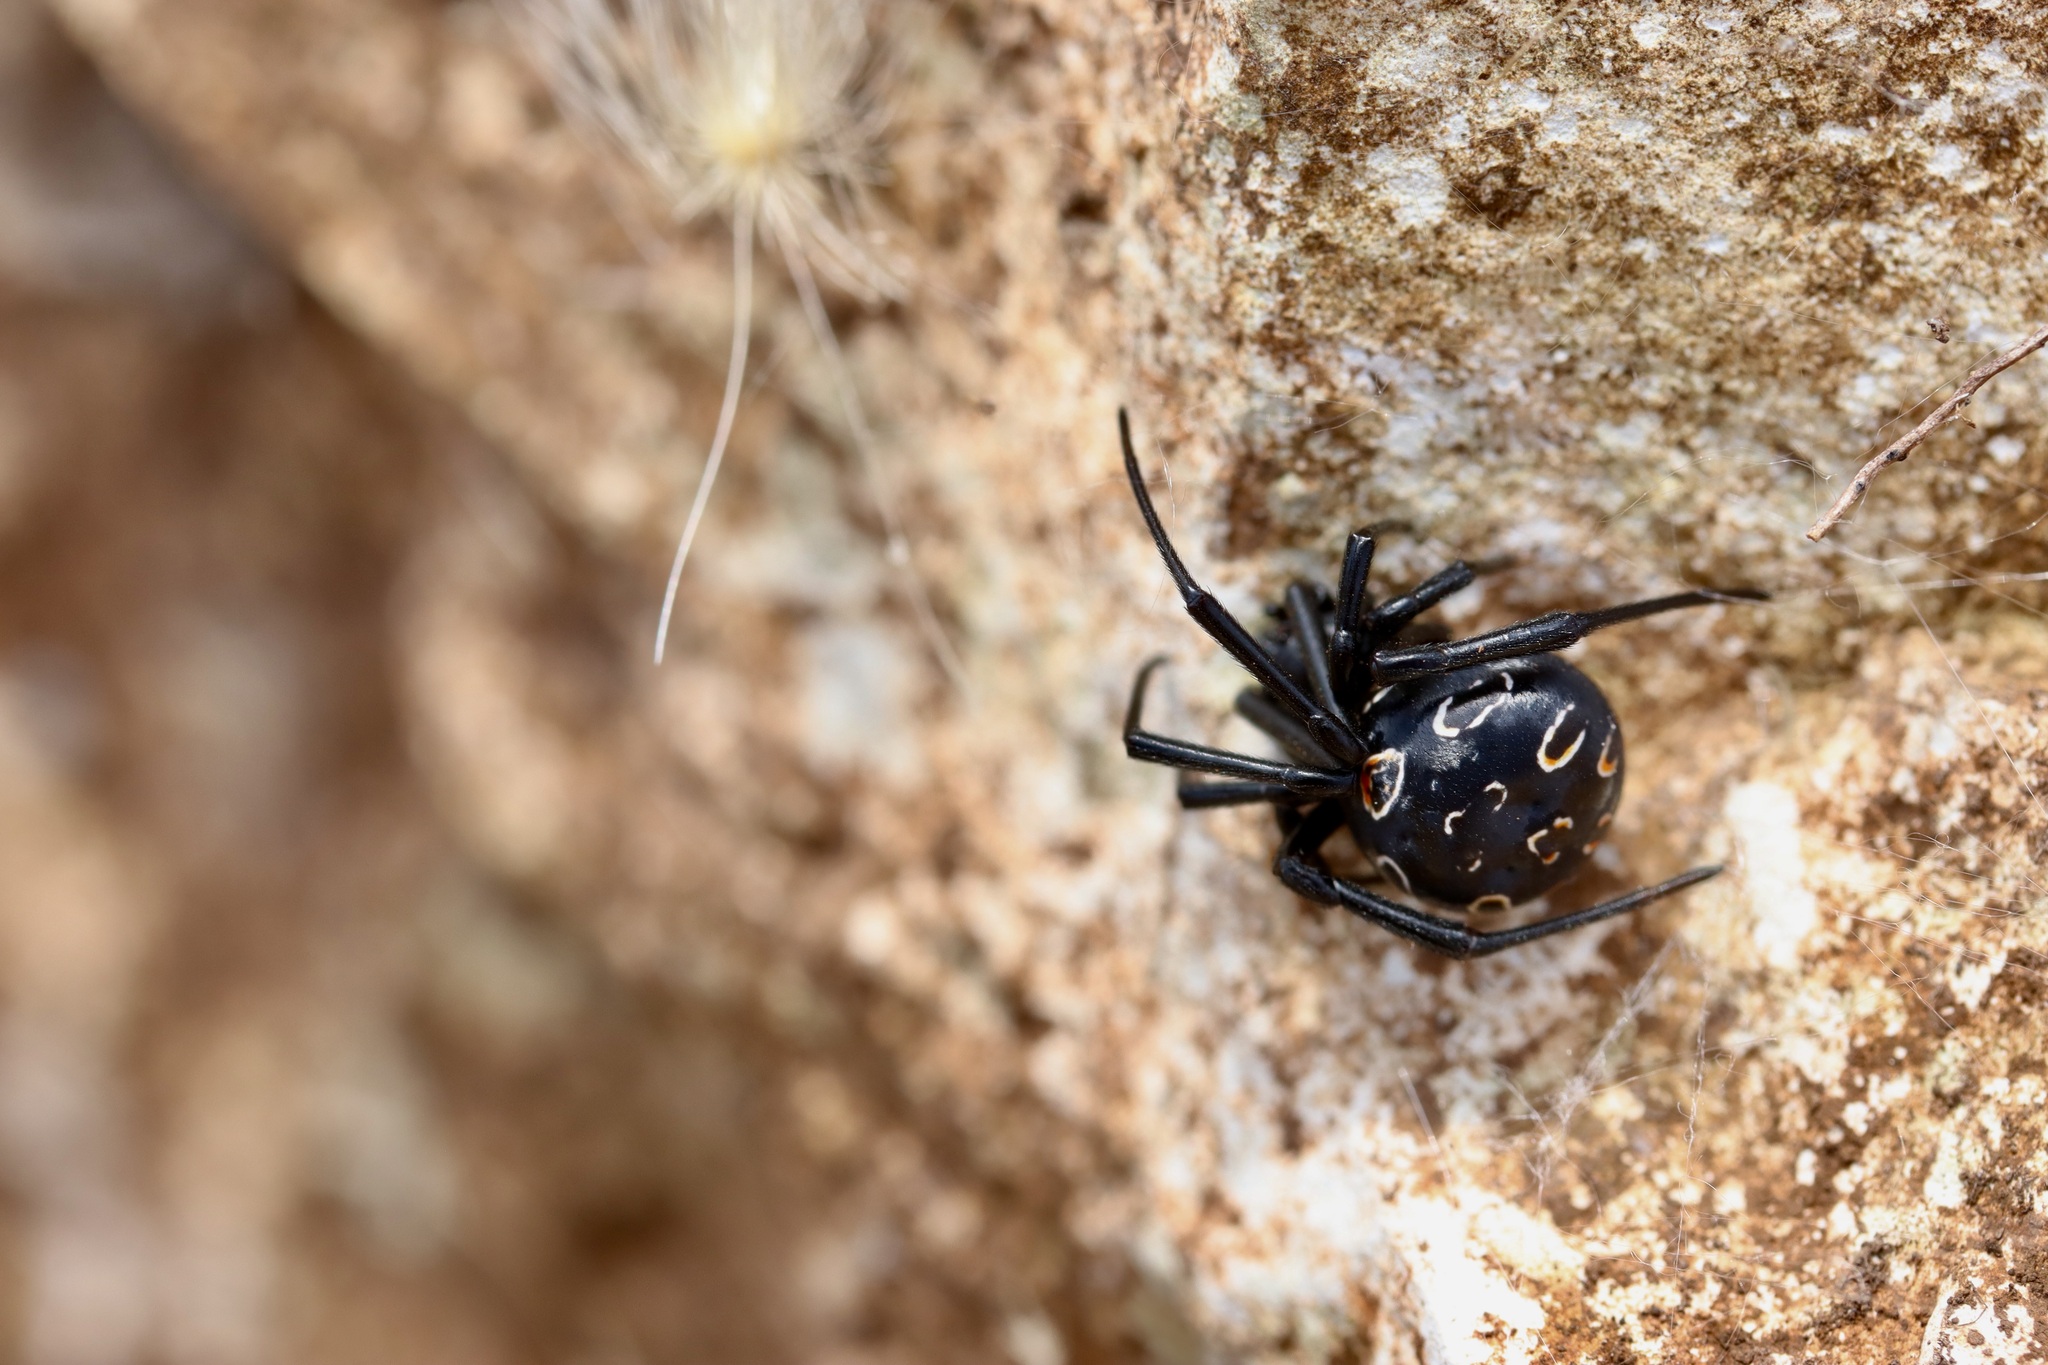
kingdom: Animalia
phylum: Arthropoda
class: Arachnida
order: Araneae
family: Theridiidae
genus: Latrodectus
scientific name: Latrodectus tredecimguttatus
